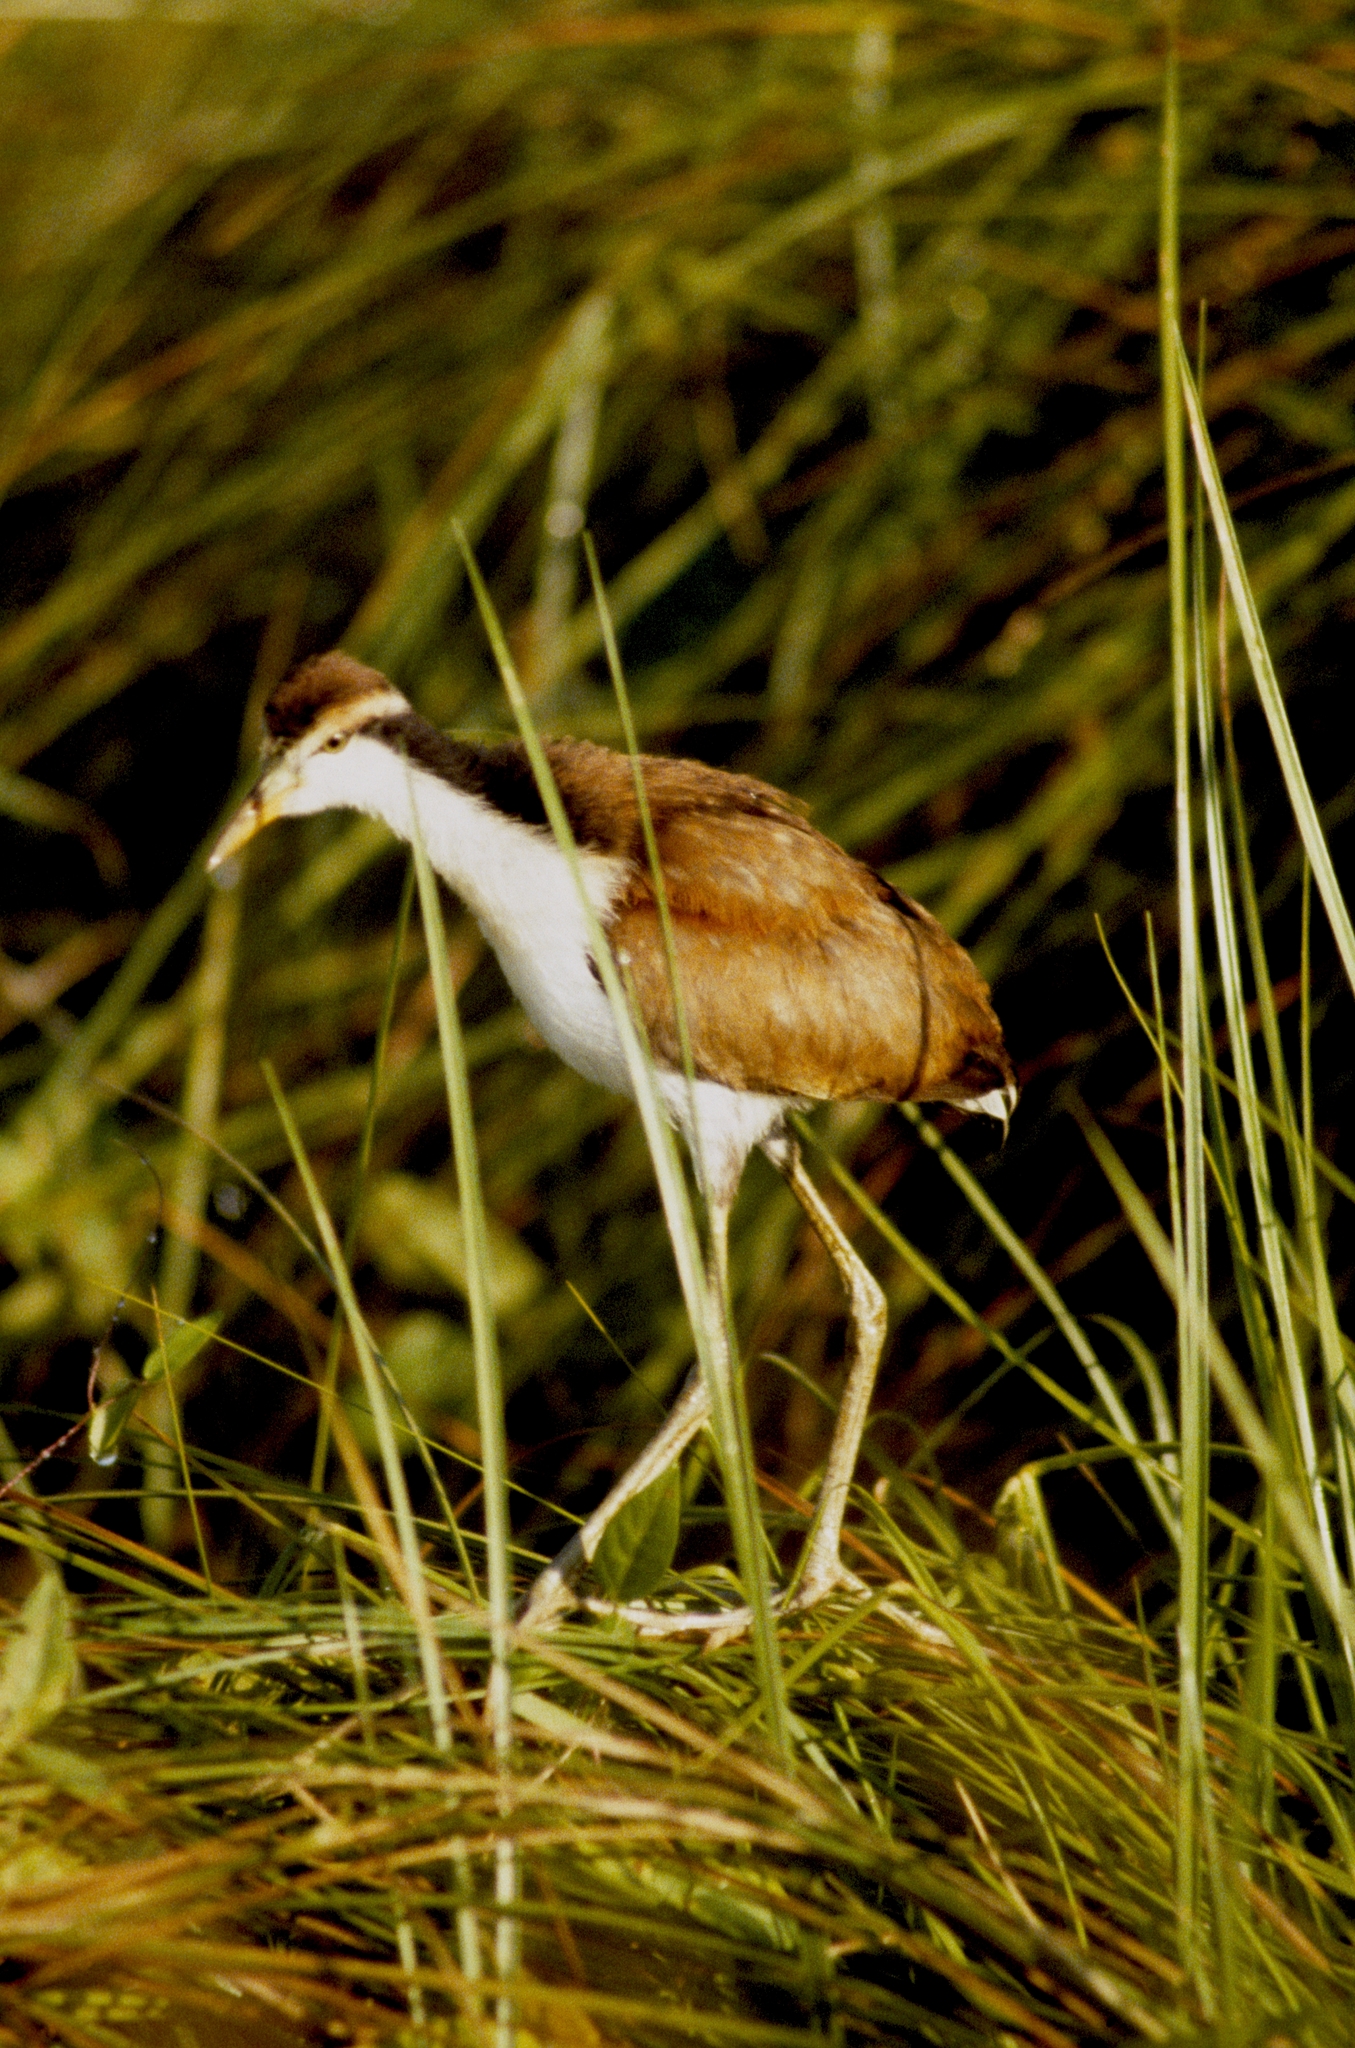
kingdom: Animalia
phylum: Chordata
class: Aves
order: Charadriiformes
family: Jacanidae
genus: Jacana
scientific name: Jacana jacana
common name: Wattled jacana
